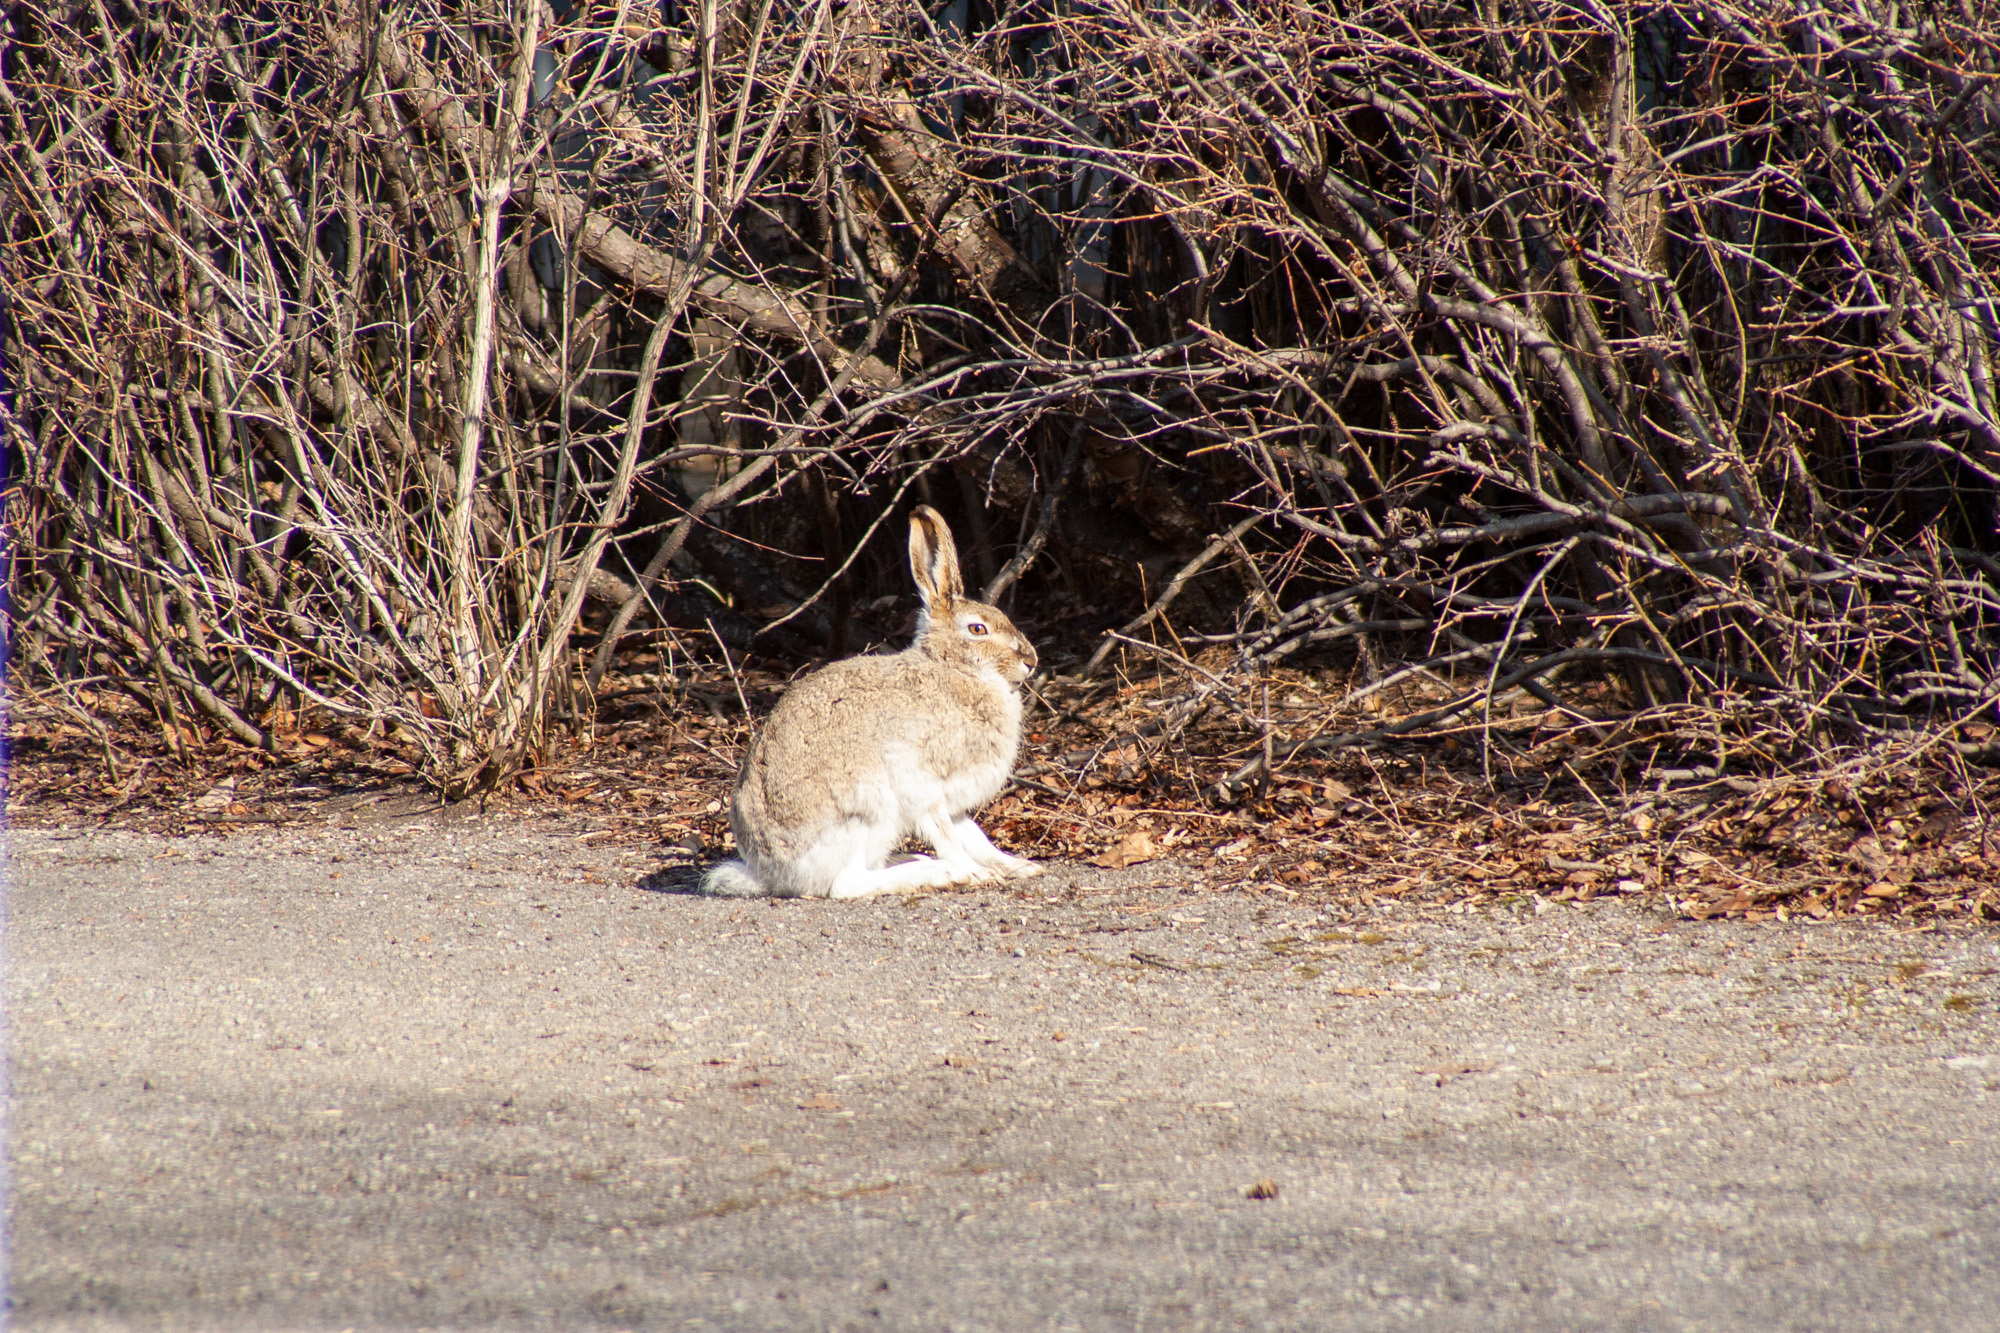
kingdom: Animalia
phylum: Chordata
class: Mammalia
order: Lagomorpha
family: Leporidae
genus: Lepus
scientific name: Lepus townsendii
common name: White-tailed jackrabbit
